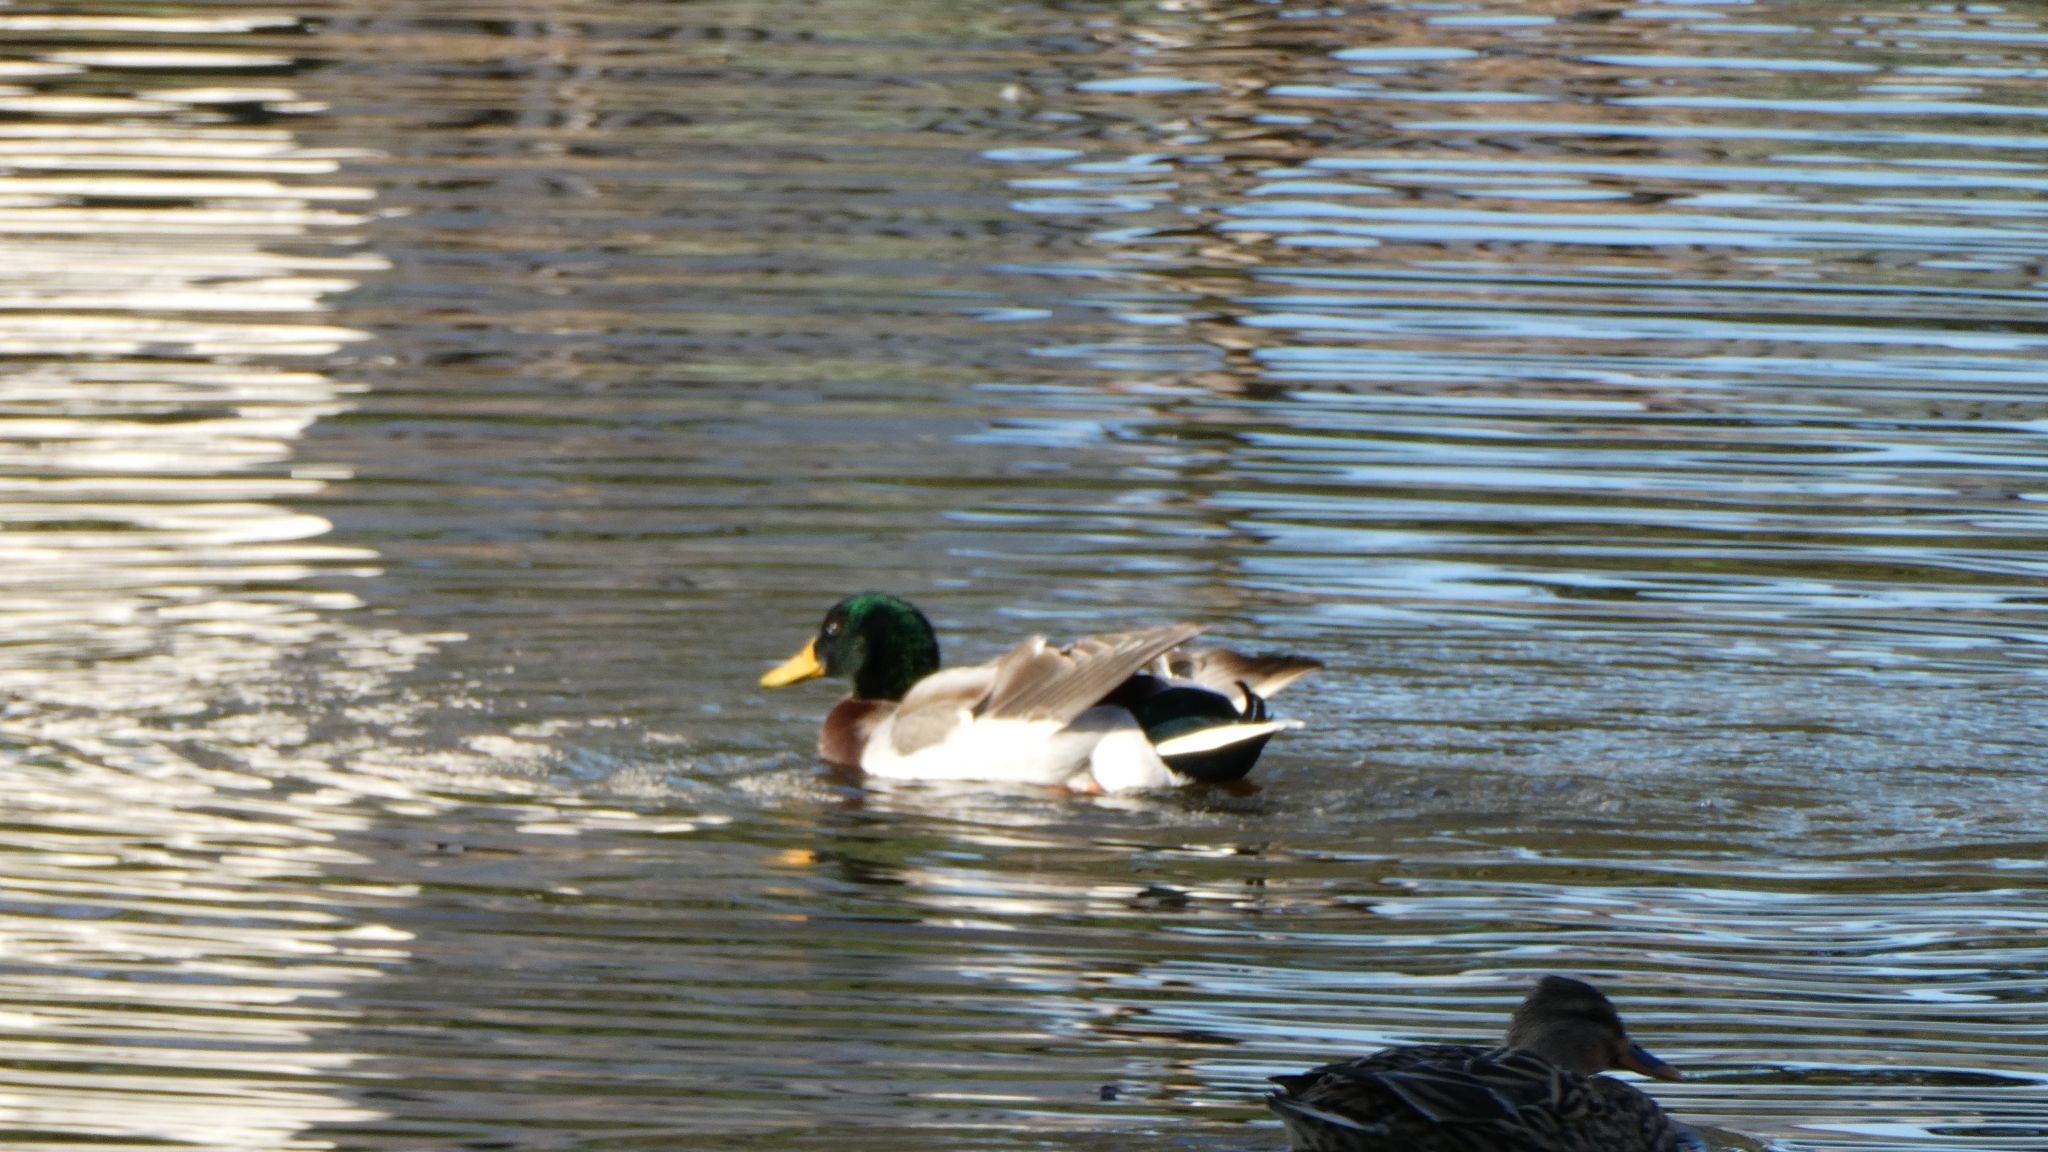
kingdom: Animalia
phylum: Chordata
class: Aves
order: Anseriformes
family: Anatidae
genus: Anas
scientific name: Anas platyrhynchos
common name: Mallard
